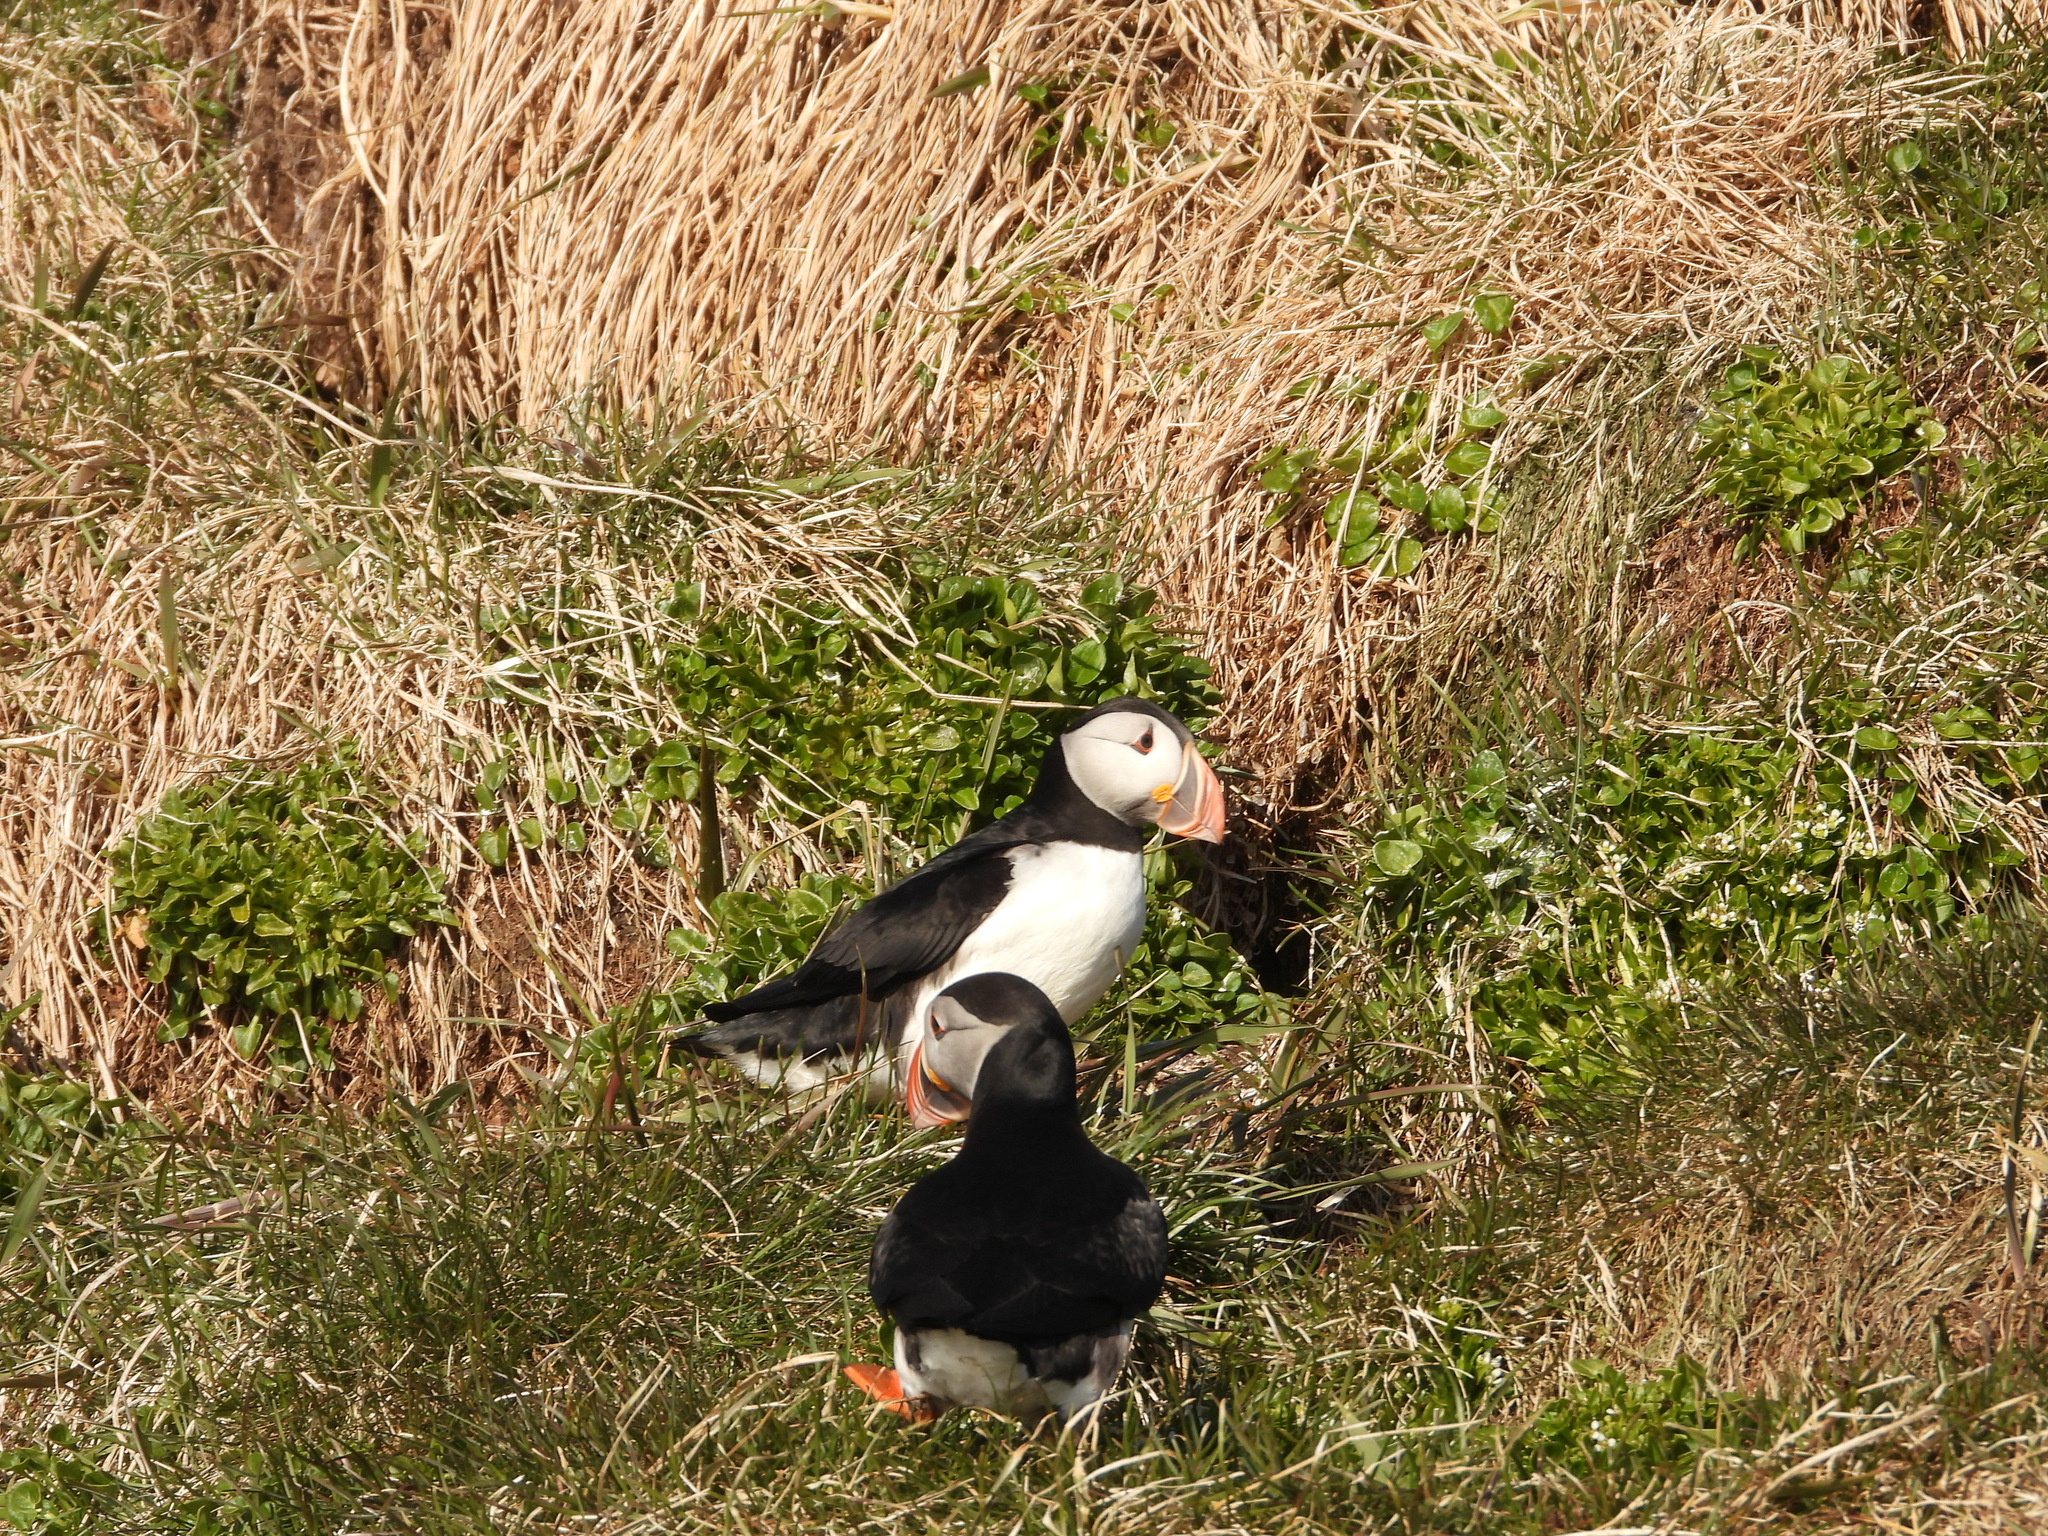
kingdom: Animalia
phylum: Chordata
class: Aves
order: Charadriiformes
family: Alcidae
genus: Fratercula
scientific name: Fratercula arctica
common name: Atlantic puffin
